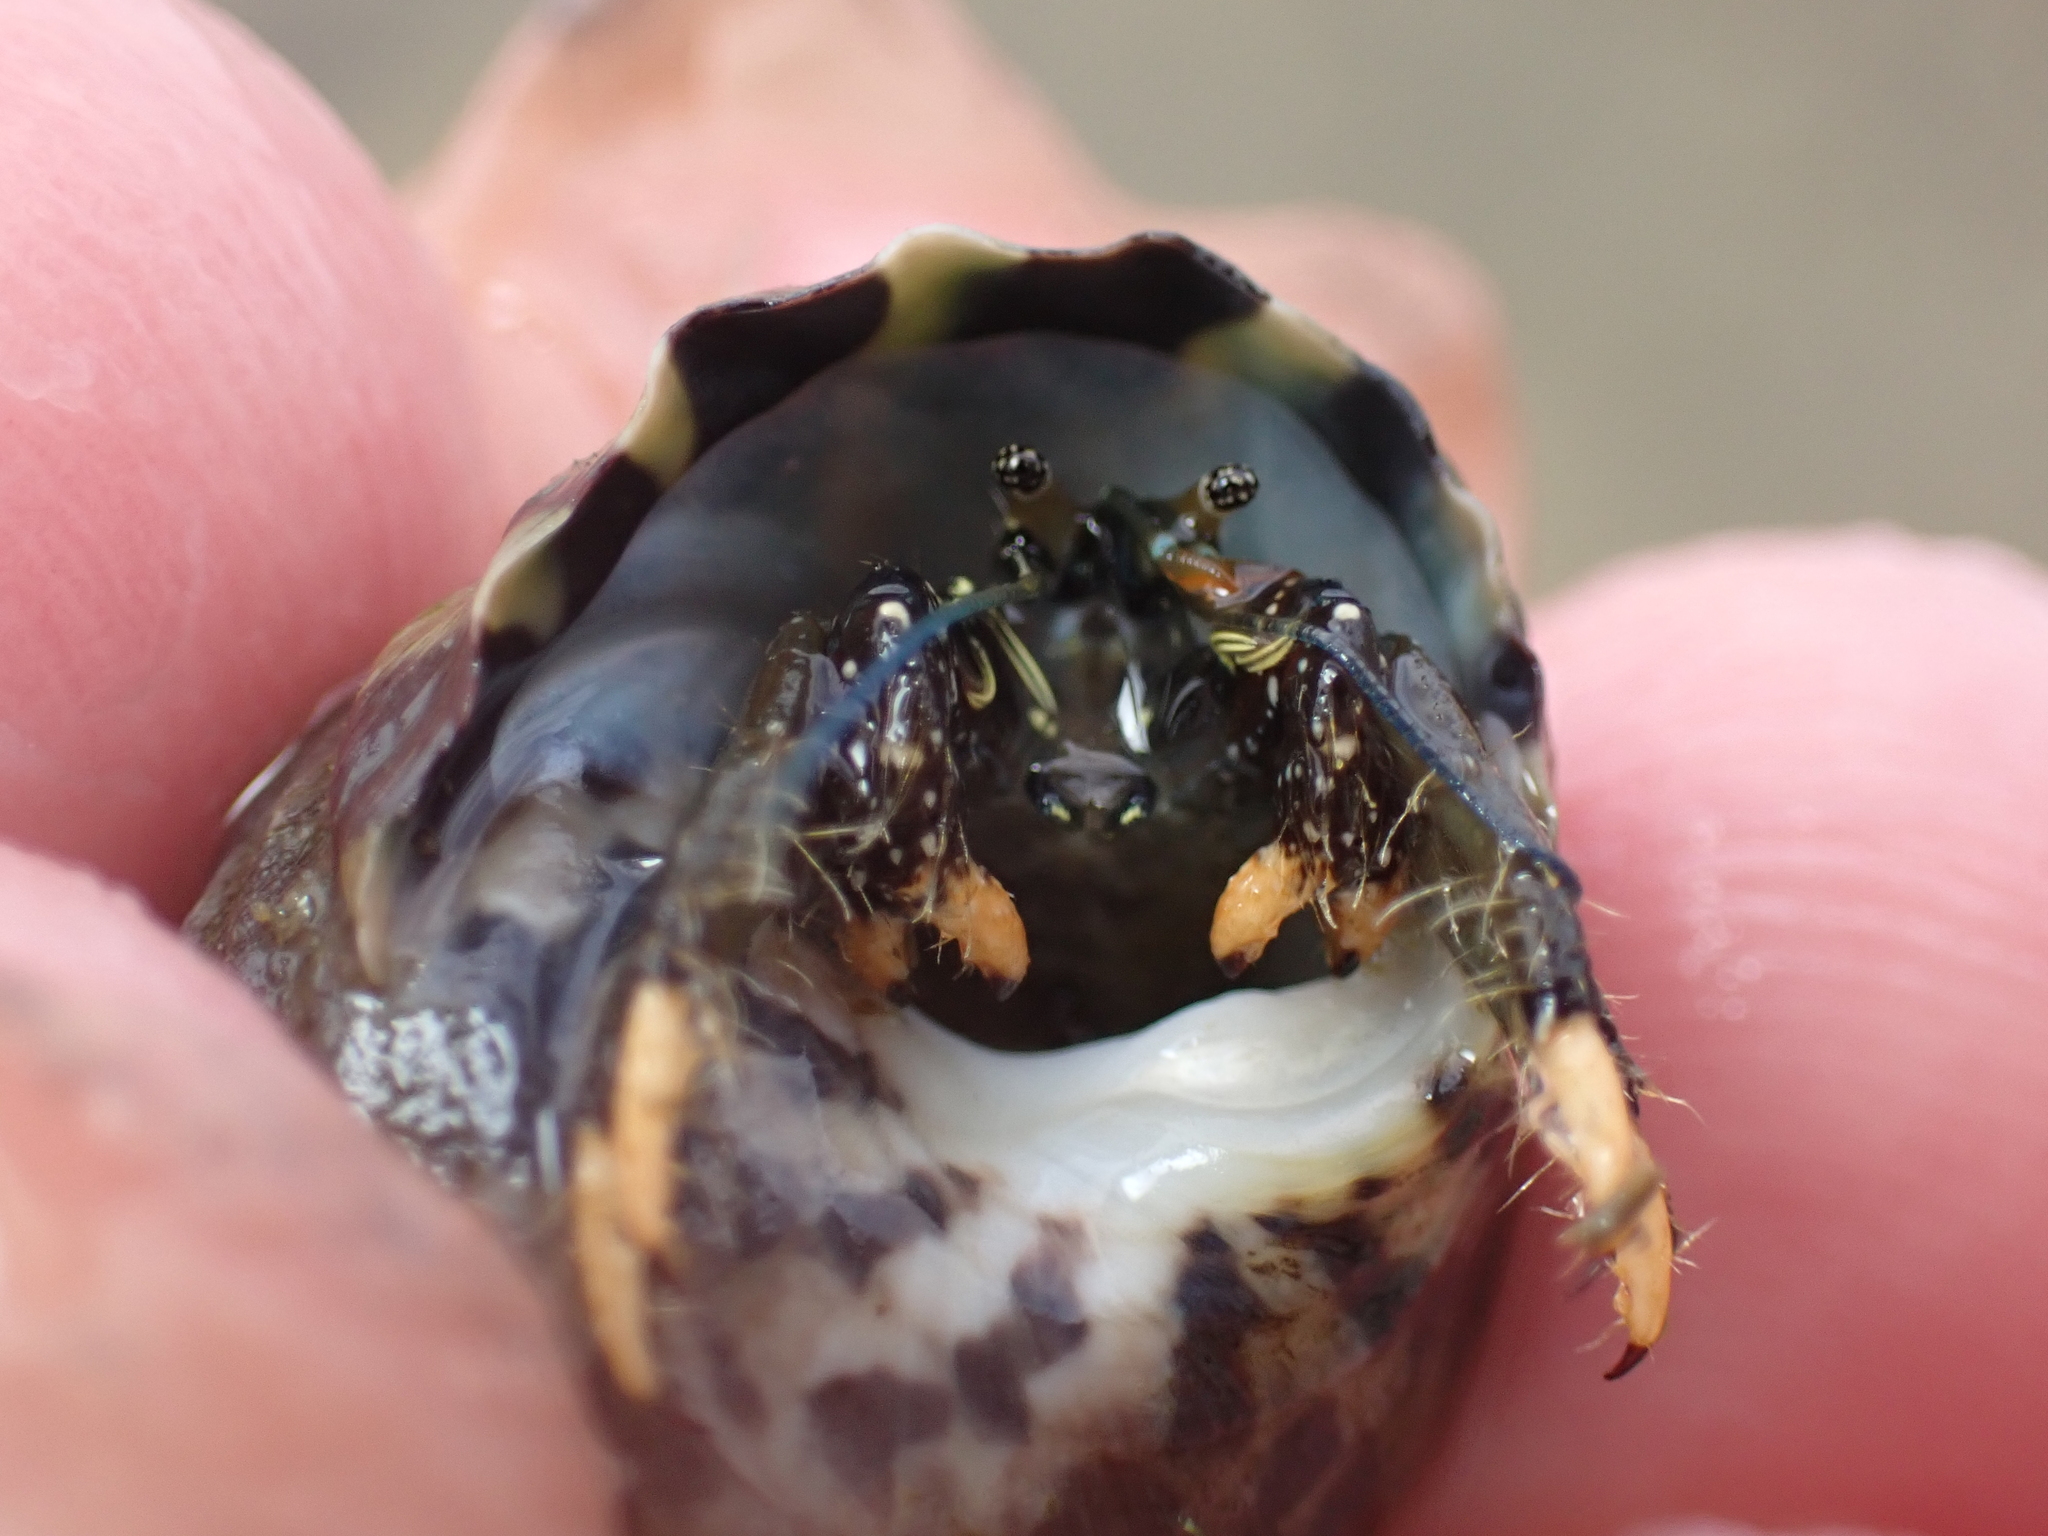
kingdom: Animalia
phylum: Arthropoda
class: Malacostraca
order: Decapoda
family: Diogenidae
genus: Clibanarius
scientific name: Clibanarius virescens
